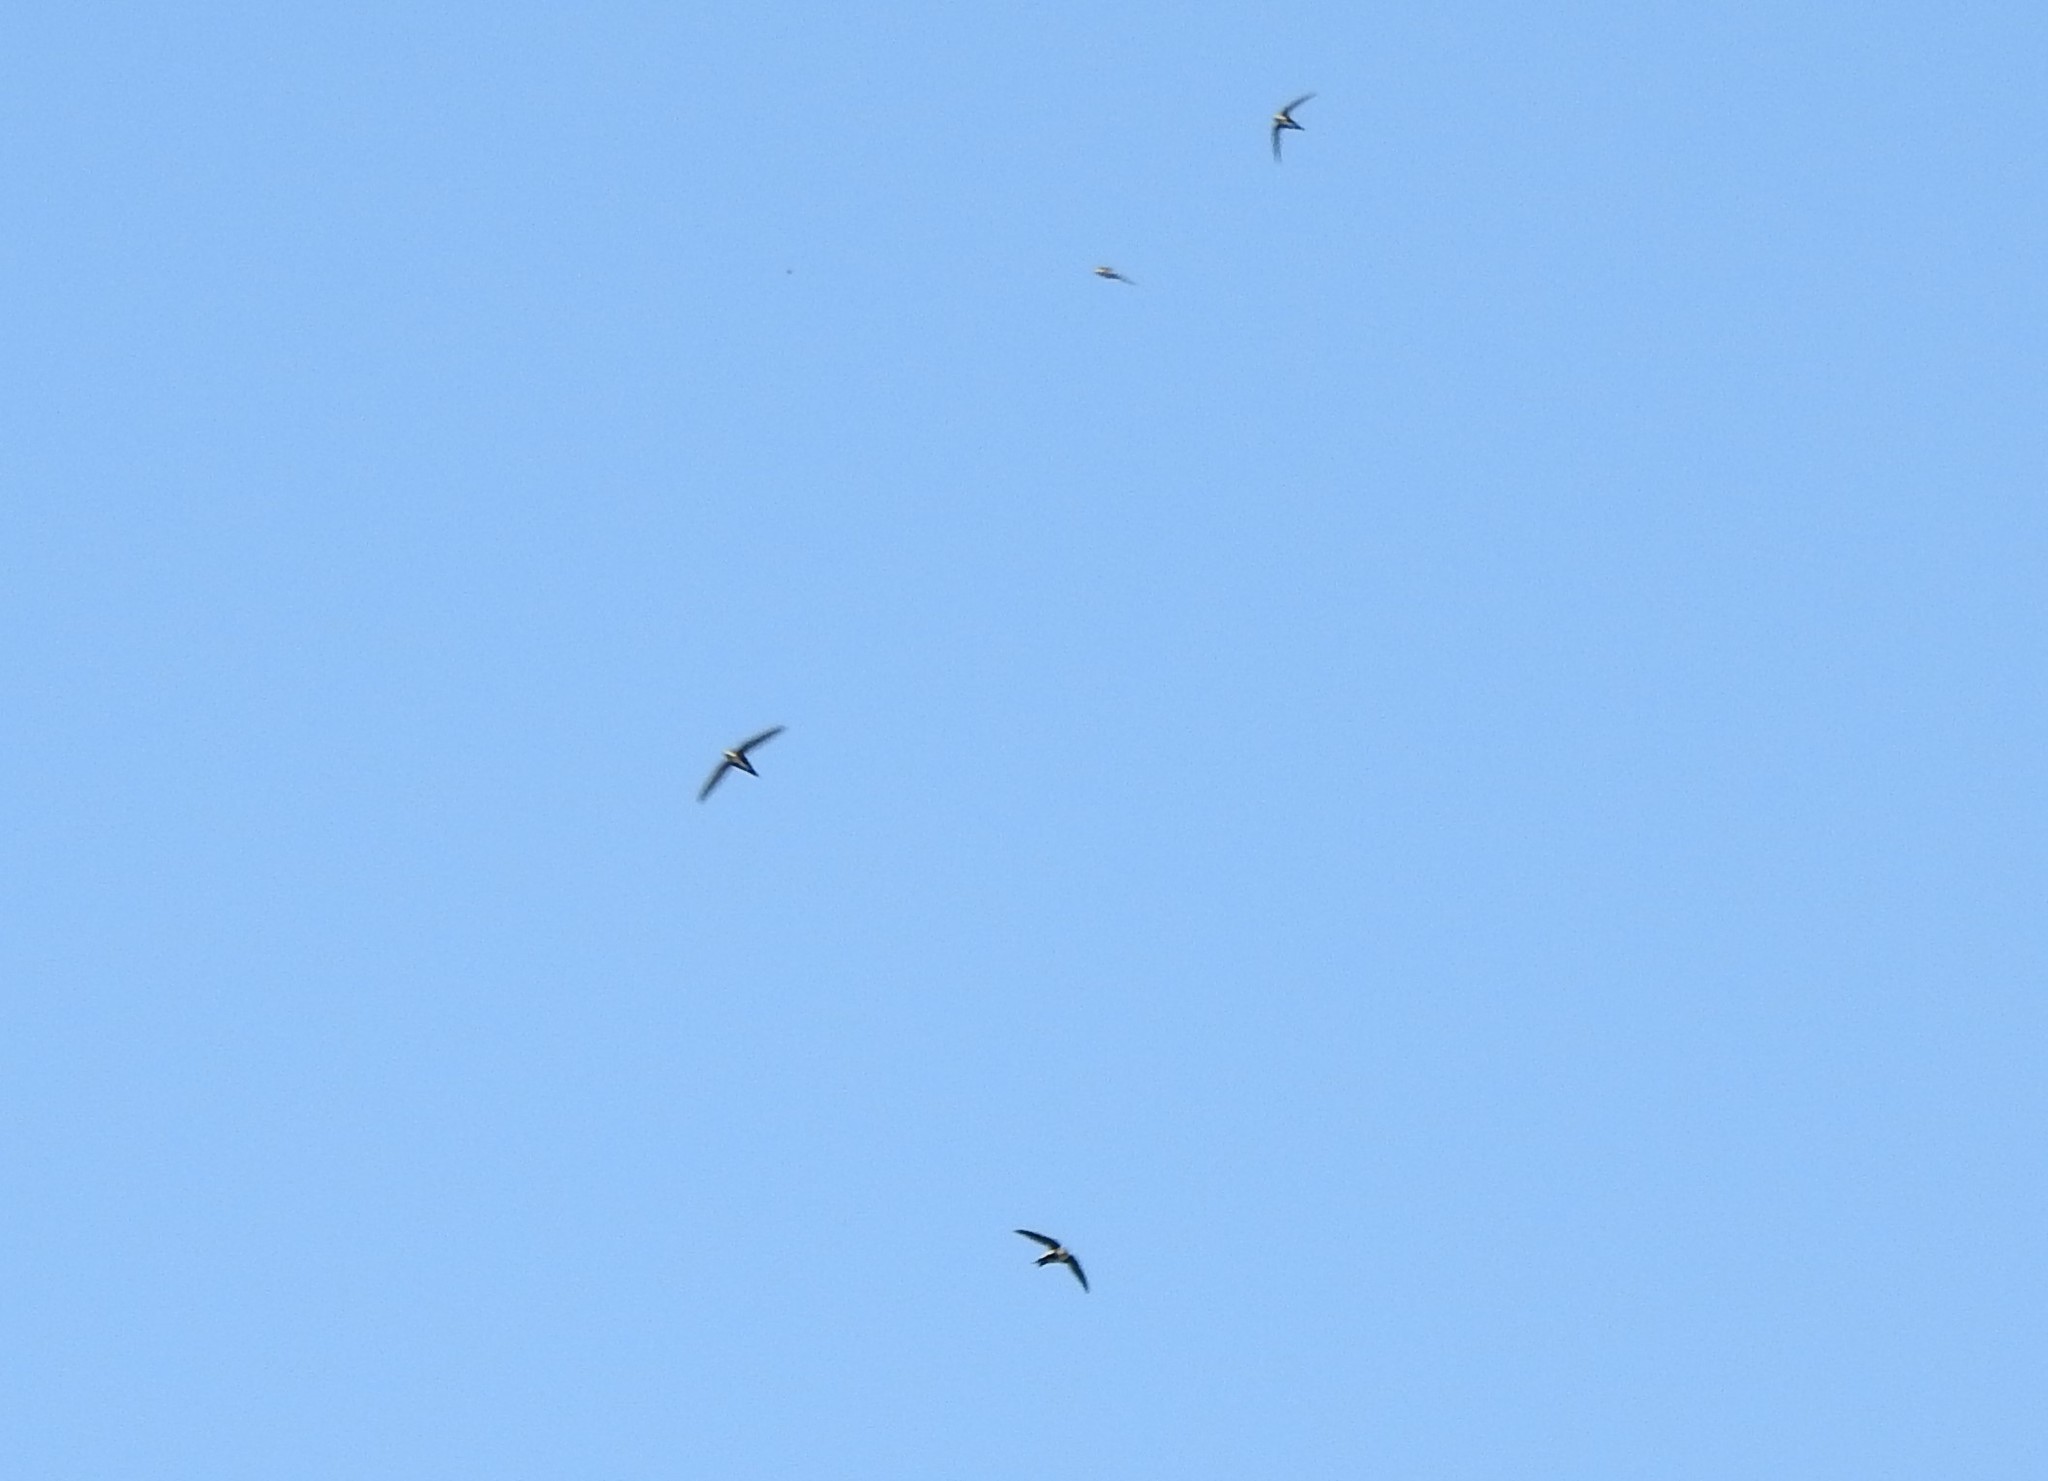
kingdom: Animalia
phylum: Chordata
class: Aves
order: Apodiformes
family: Apodidae
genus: Aeronautes
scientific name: Aeronautes saxatalis
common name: White-throated swift
